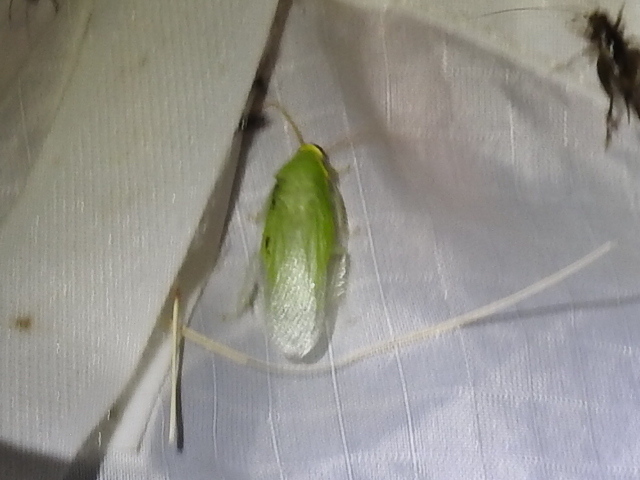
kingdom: Animalia
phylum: Arthropoda
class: Insecta
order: Blattodea
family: Blaberidae
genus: Panchlora
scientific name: Panchlora nivea
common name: Cuban cockroach
